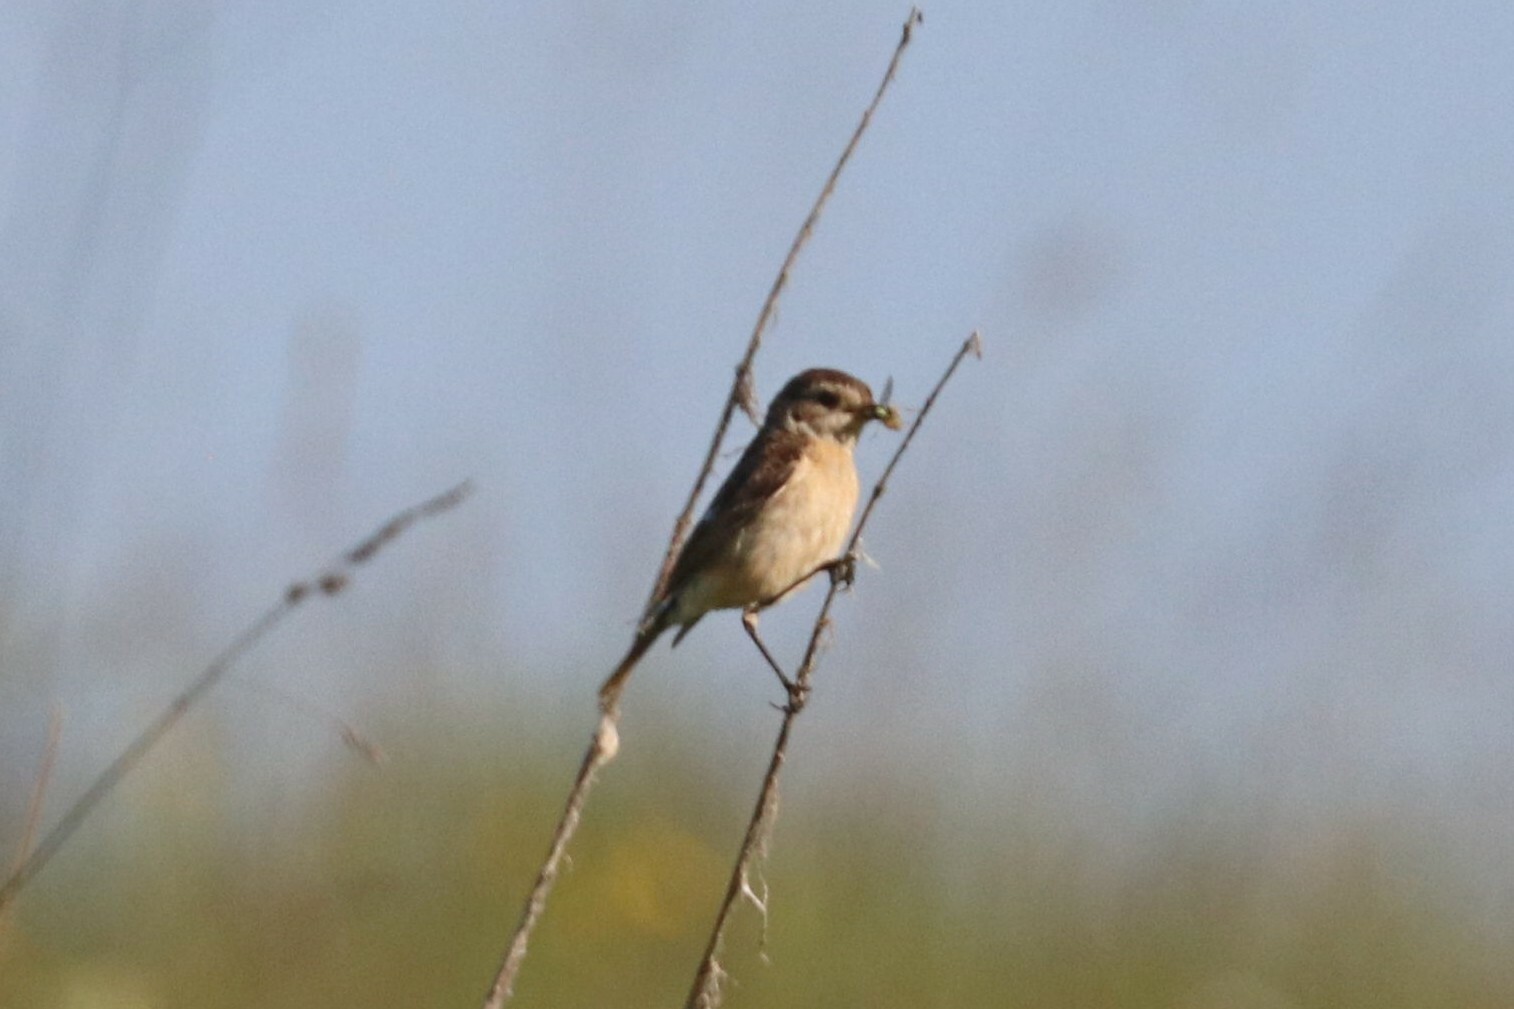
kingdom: Animalia
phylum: Chordata
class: Aves
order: Passeriformes
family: Muscicapidae
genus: Saxicola
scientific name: Saxicola maurus
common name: Siberian stonechat
